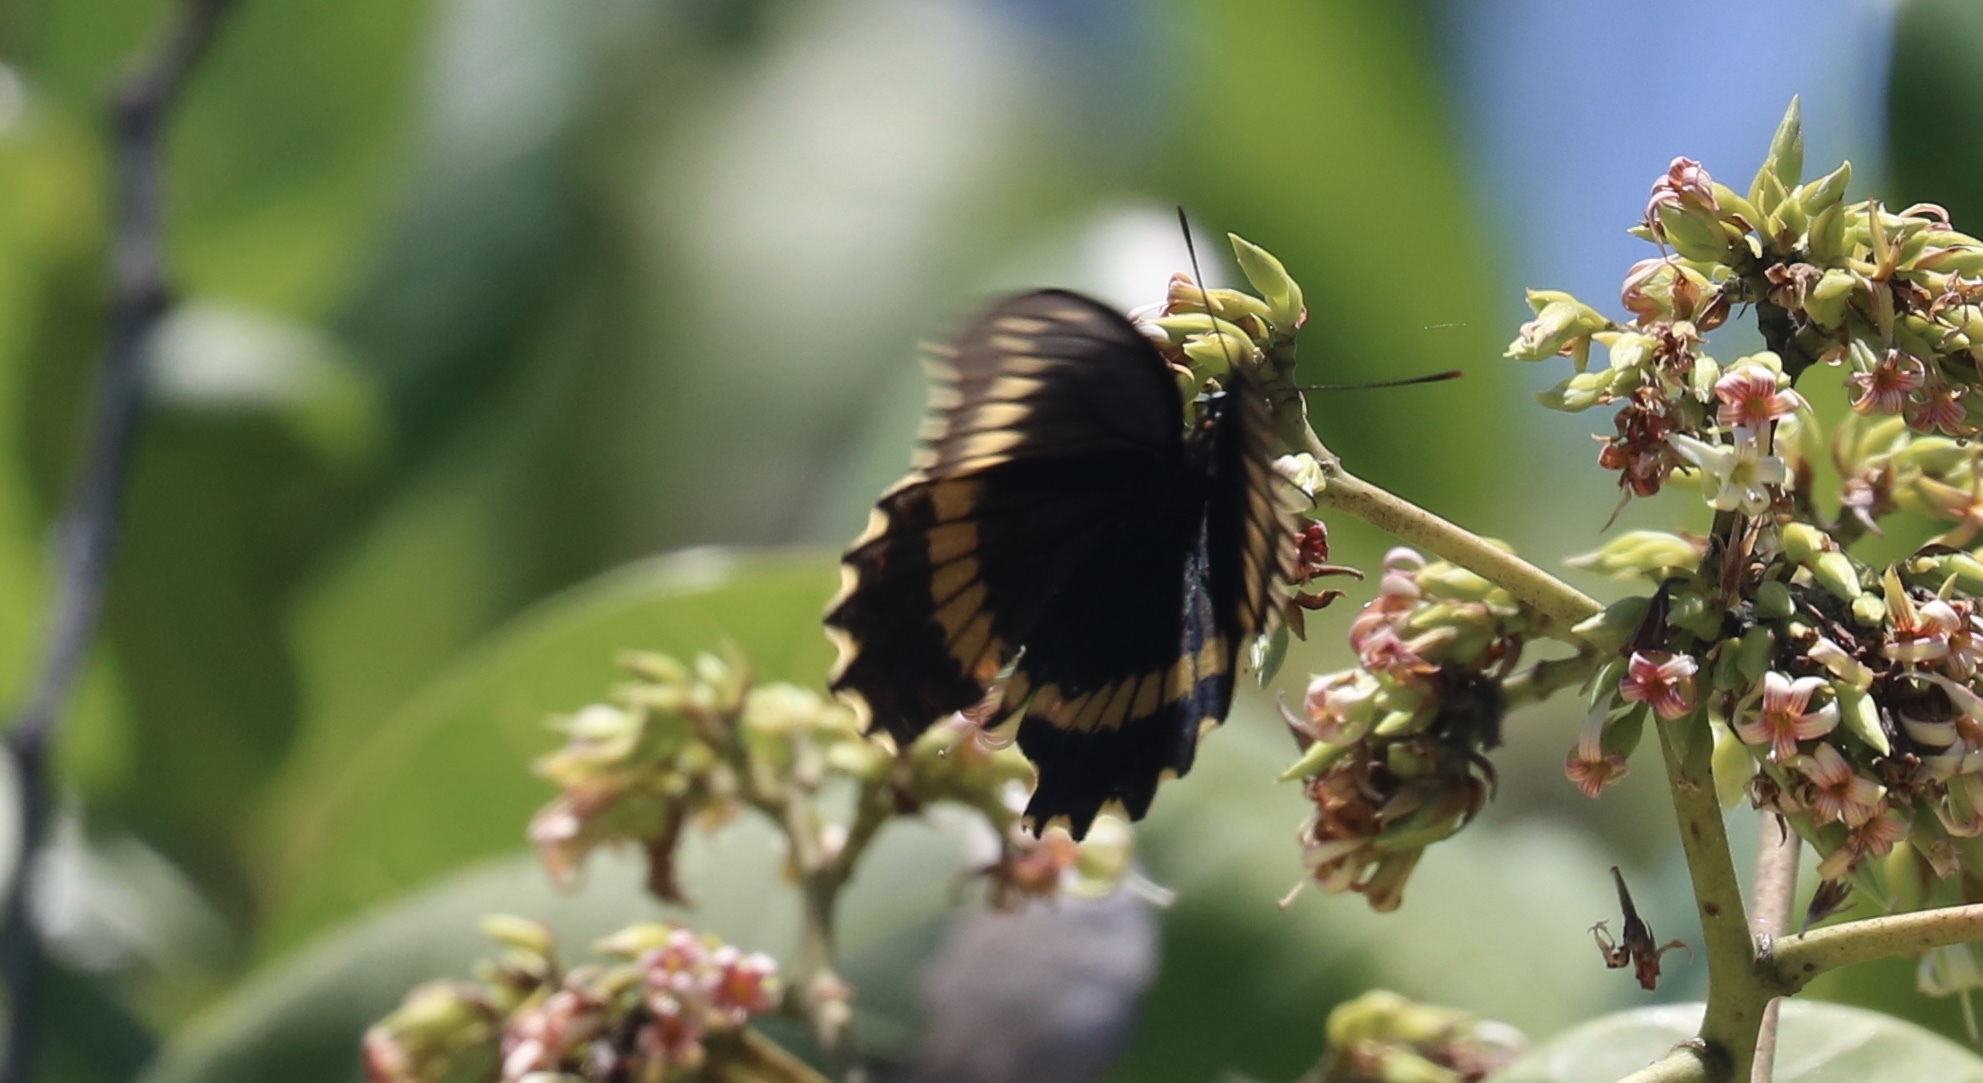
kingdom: Animalia
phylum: Arthropoda
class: Insecta
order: Lepidoptera
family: Papilionidae
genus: Battus
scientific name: Battus polydamas
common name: Polydamas swallowtail
